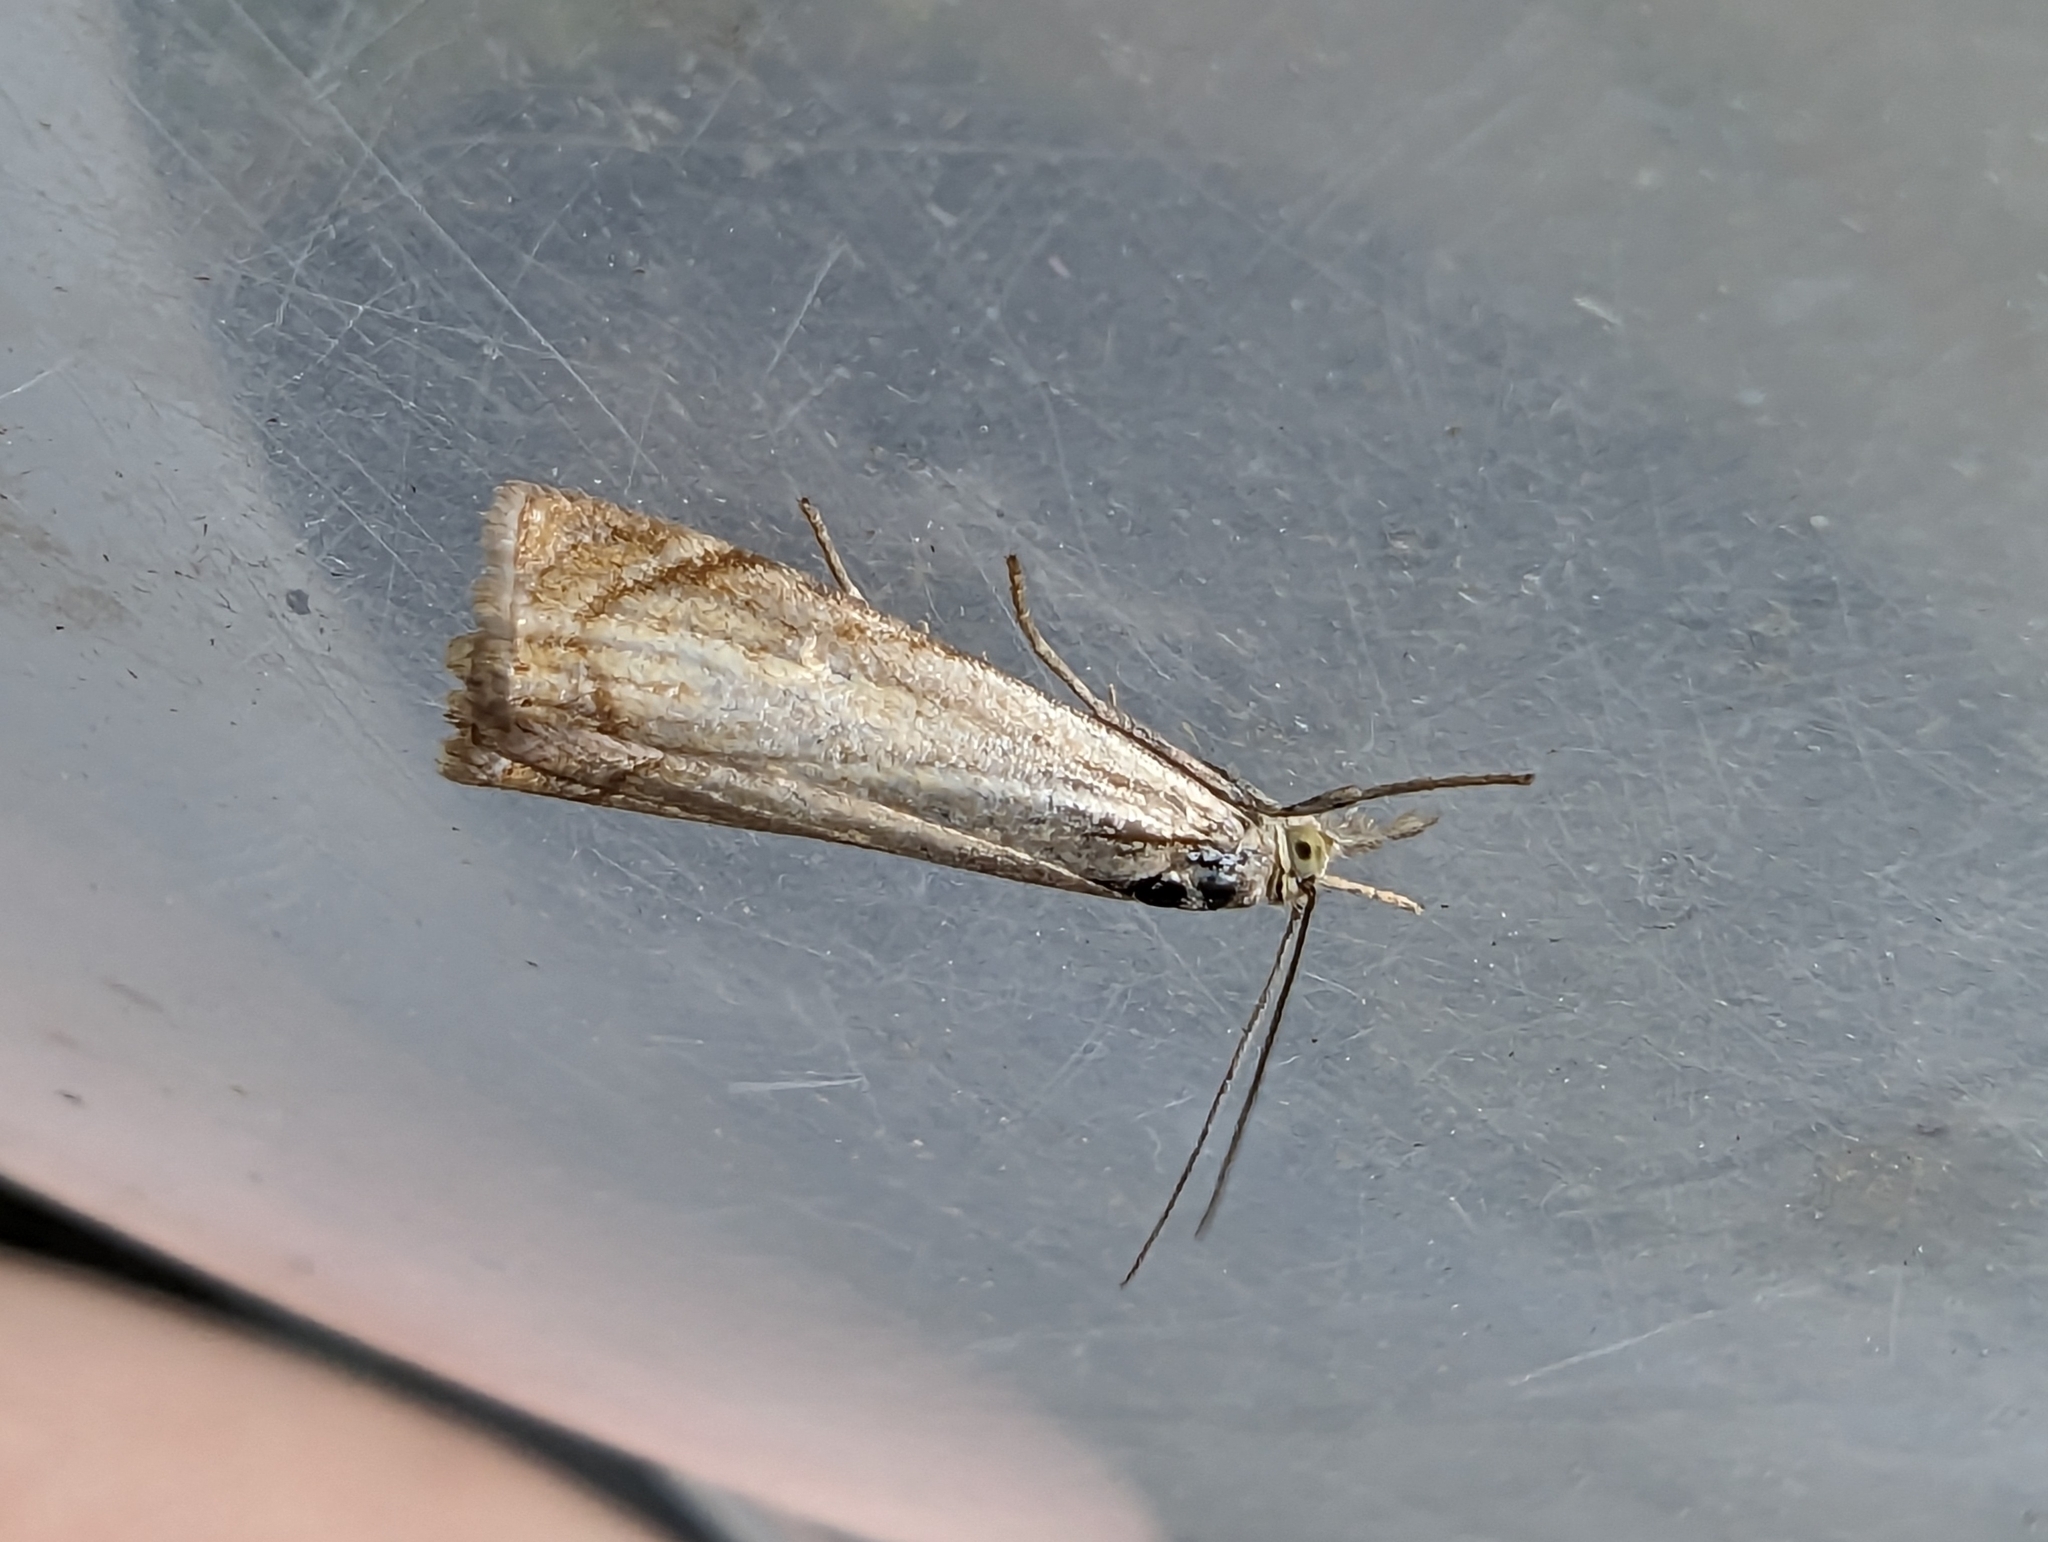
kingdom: Animalia
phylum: Arthropoda
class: Insecta
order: Lepidoptera
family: Crambidae
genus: Chrysoteuchia
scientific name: Chrysoteuchia culmella
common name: Garden grass-veneer
